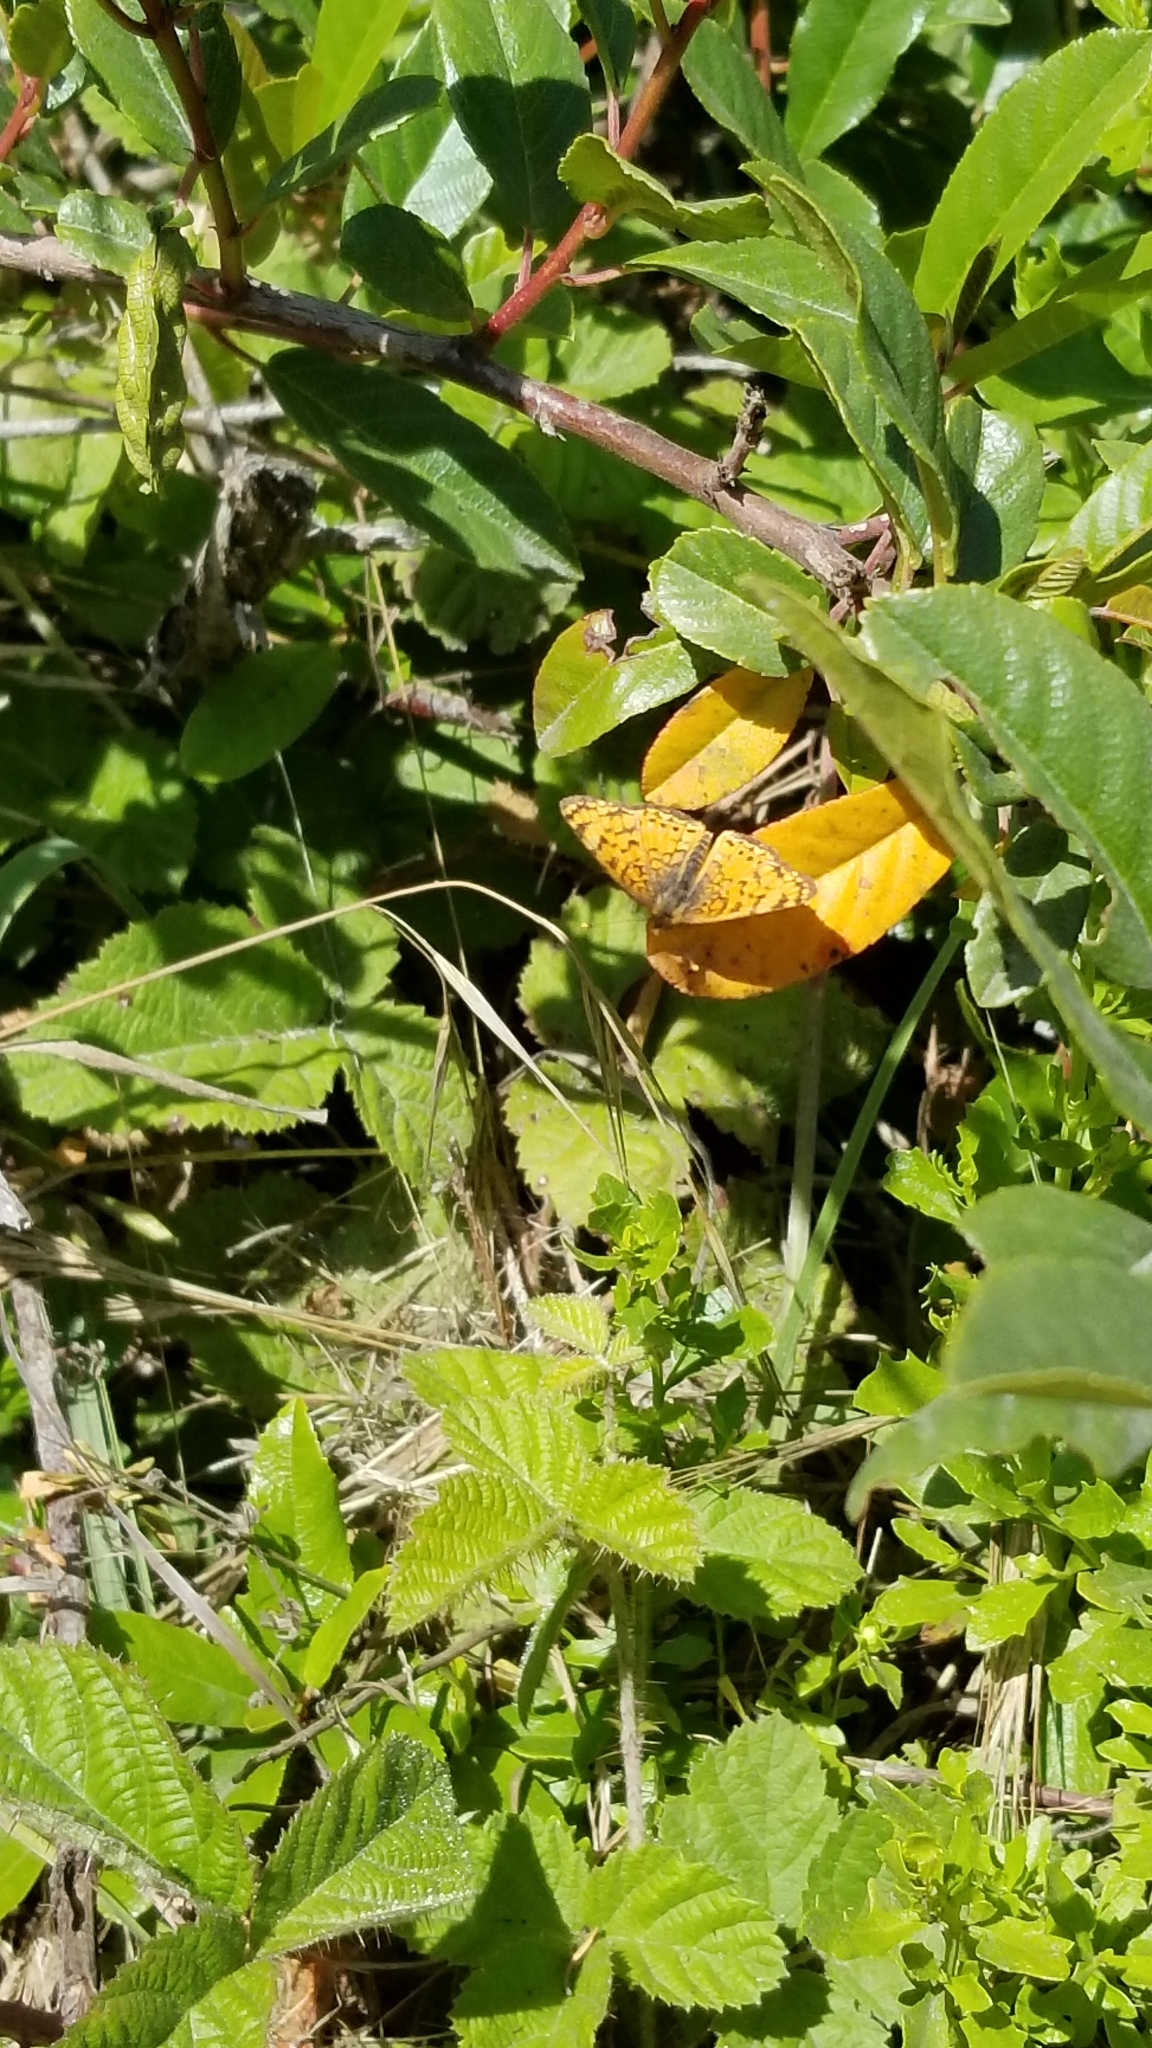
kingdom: Animalia
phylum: Arthropoda
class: Insecta
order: Lepidoptera
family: Nymphalidae
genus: Eresia
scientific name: Eresia aveyrona
